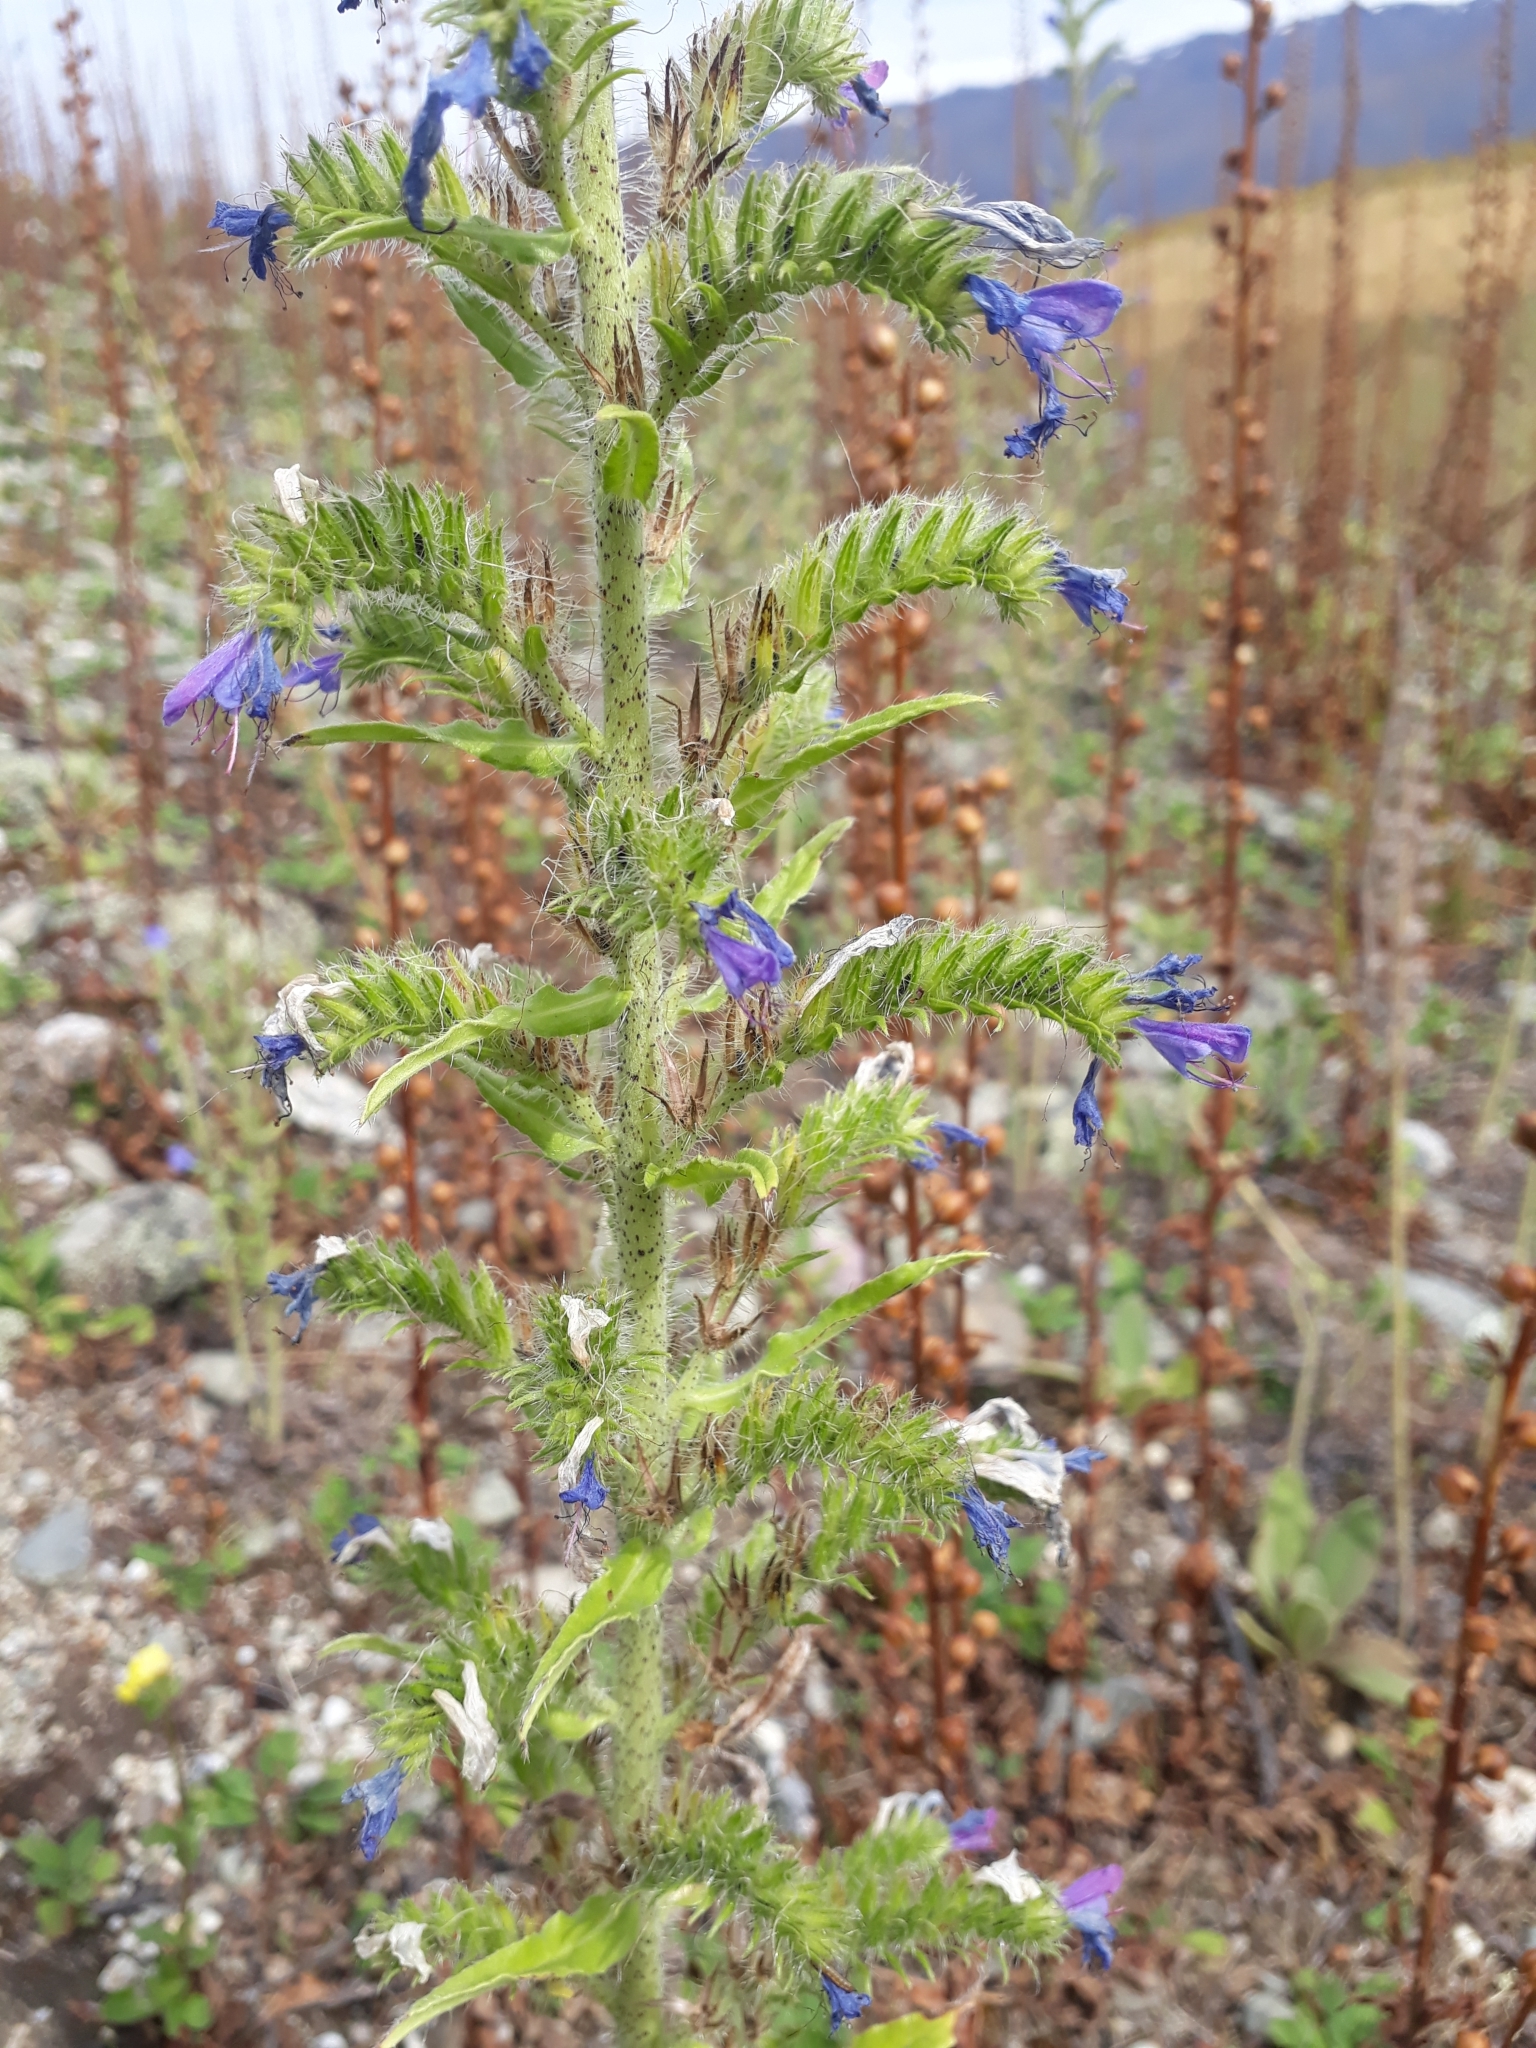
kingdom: Plantae
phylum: Tracheophyta
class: Magnoliopsida
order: Boraginales
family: Boraginaceae
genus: Echium
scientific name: Echium vulgare
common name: Common viper's bugloss
